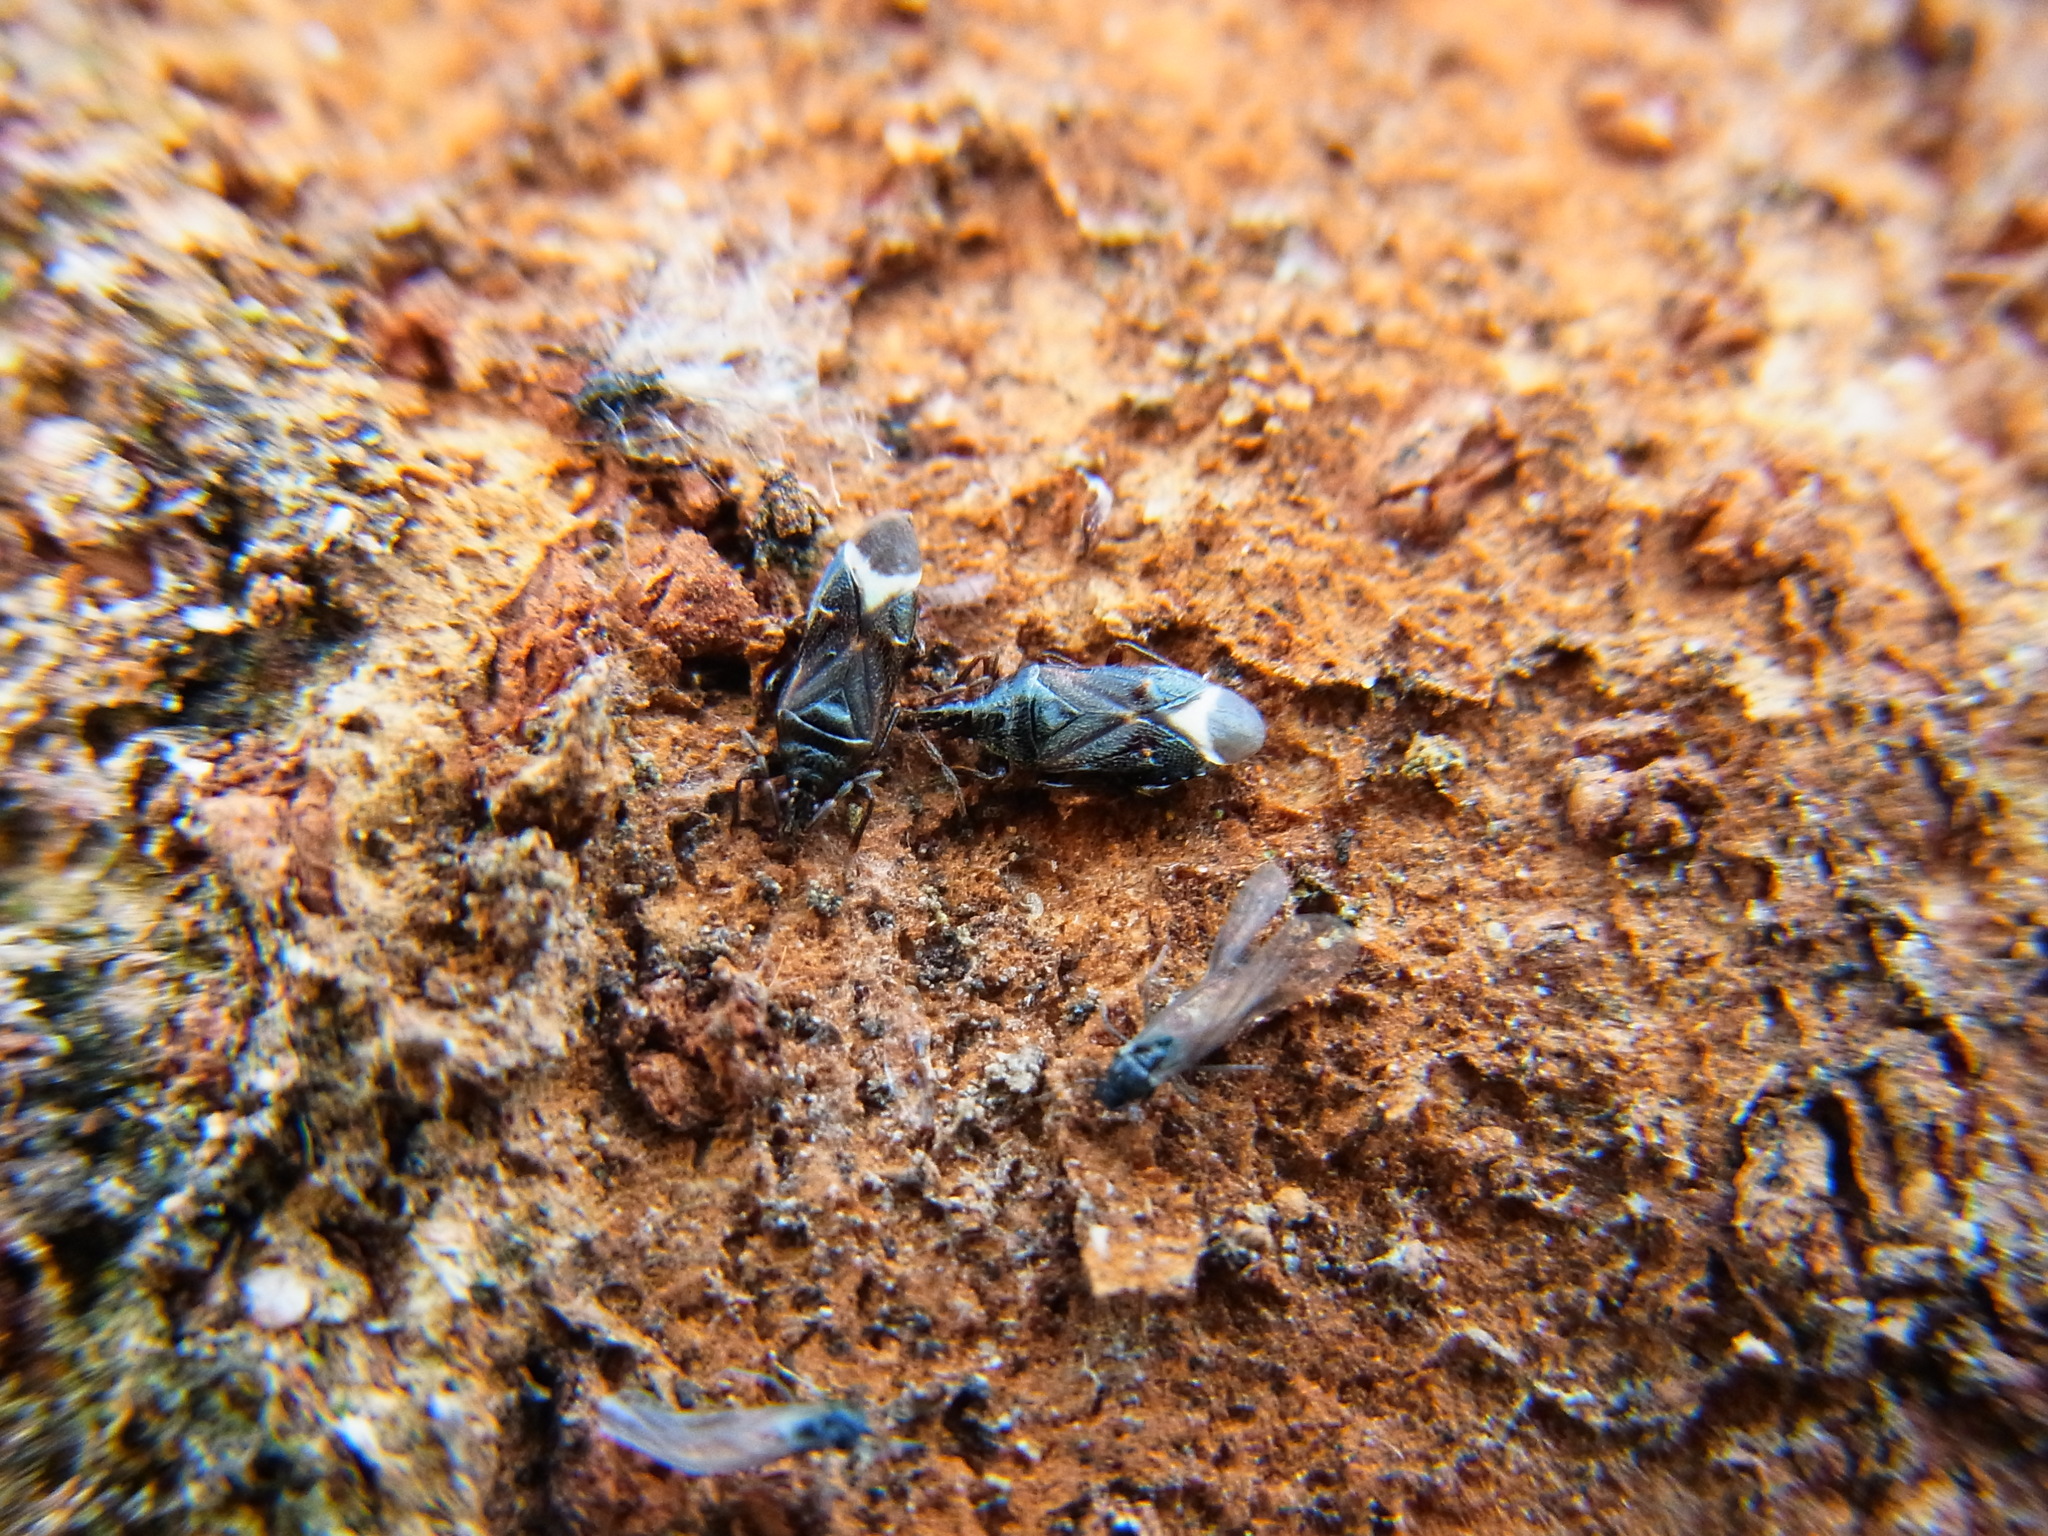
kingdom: Animalia
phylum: Arthropoda
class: Insecta
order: Hemiptera
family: Anthocoridae
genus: Anthocoris
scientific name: Anthocoris japonicus
